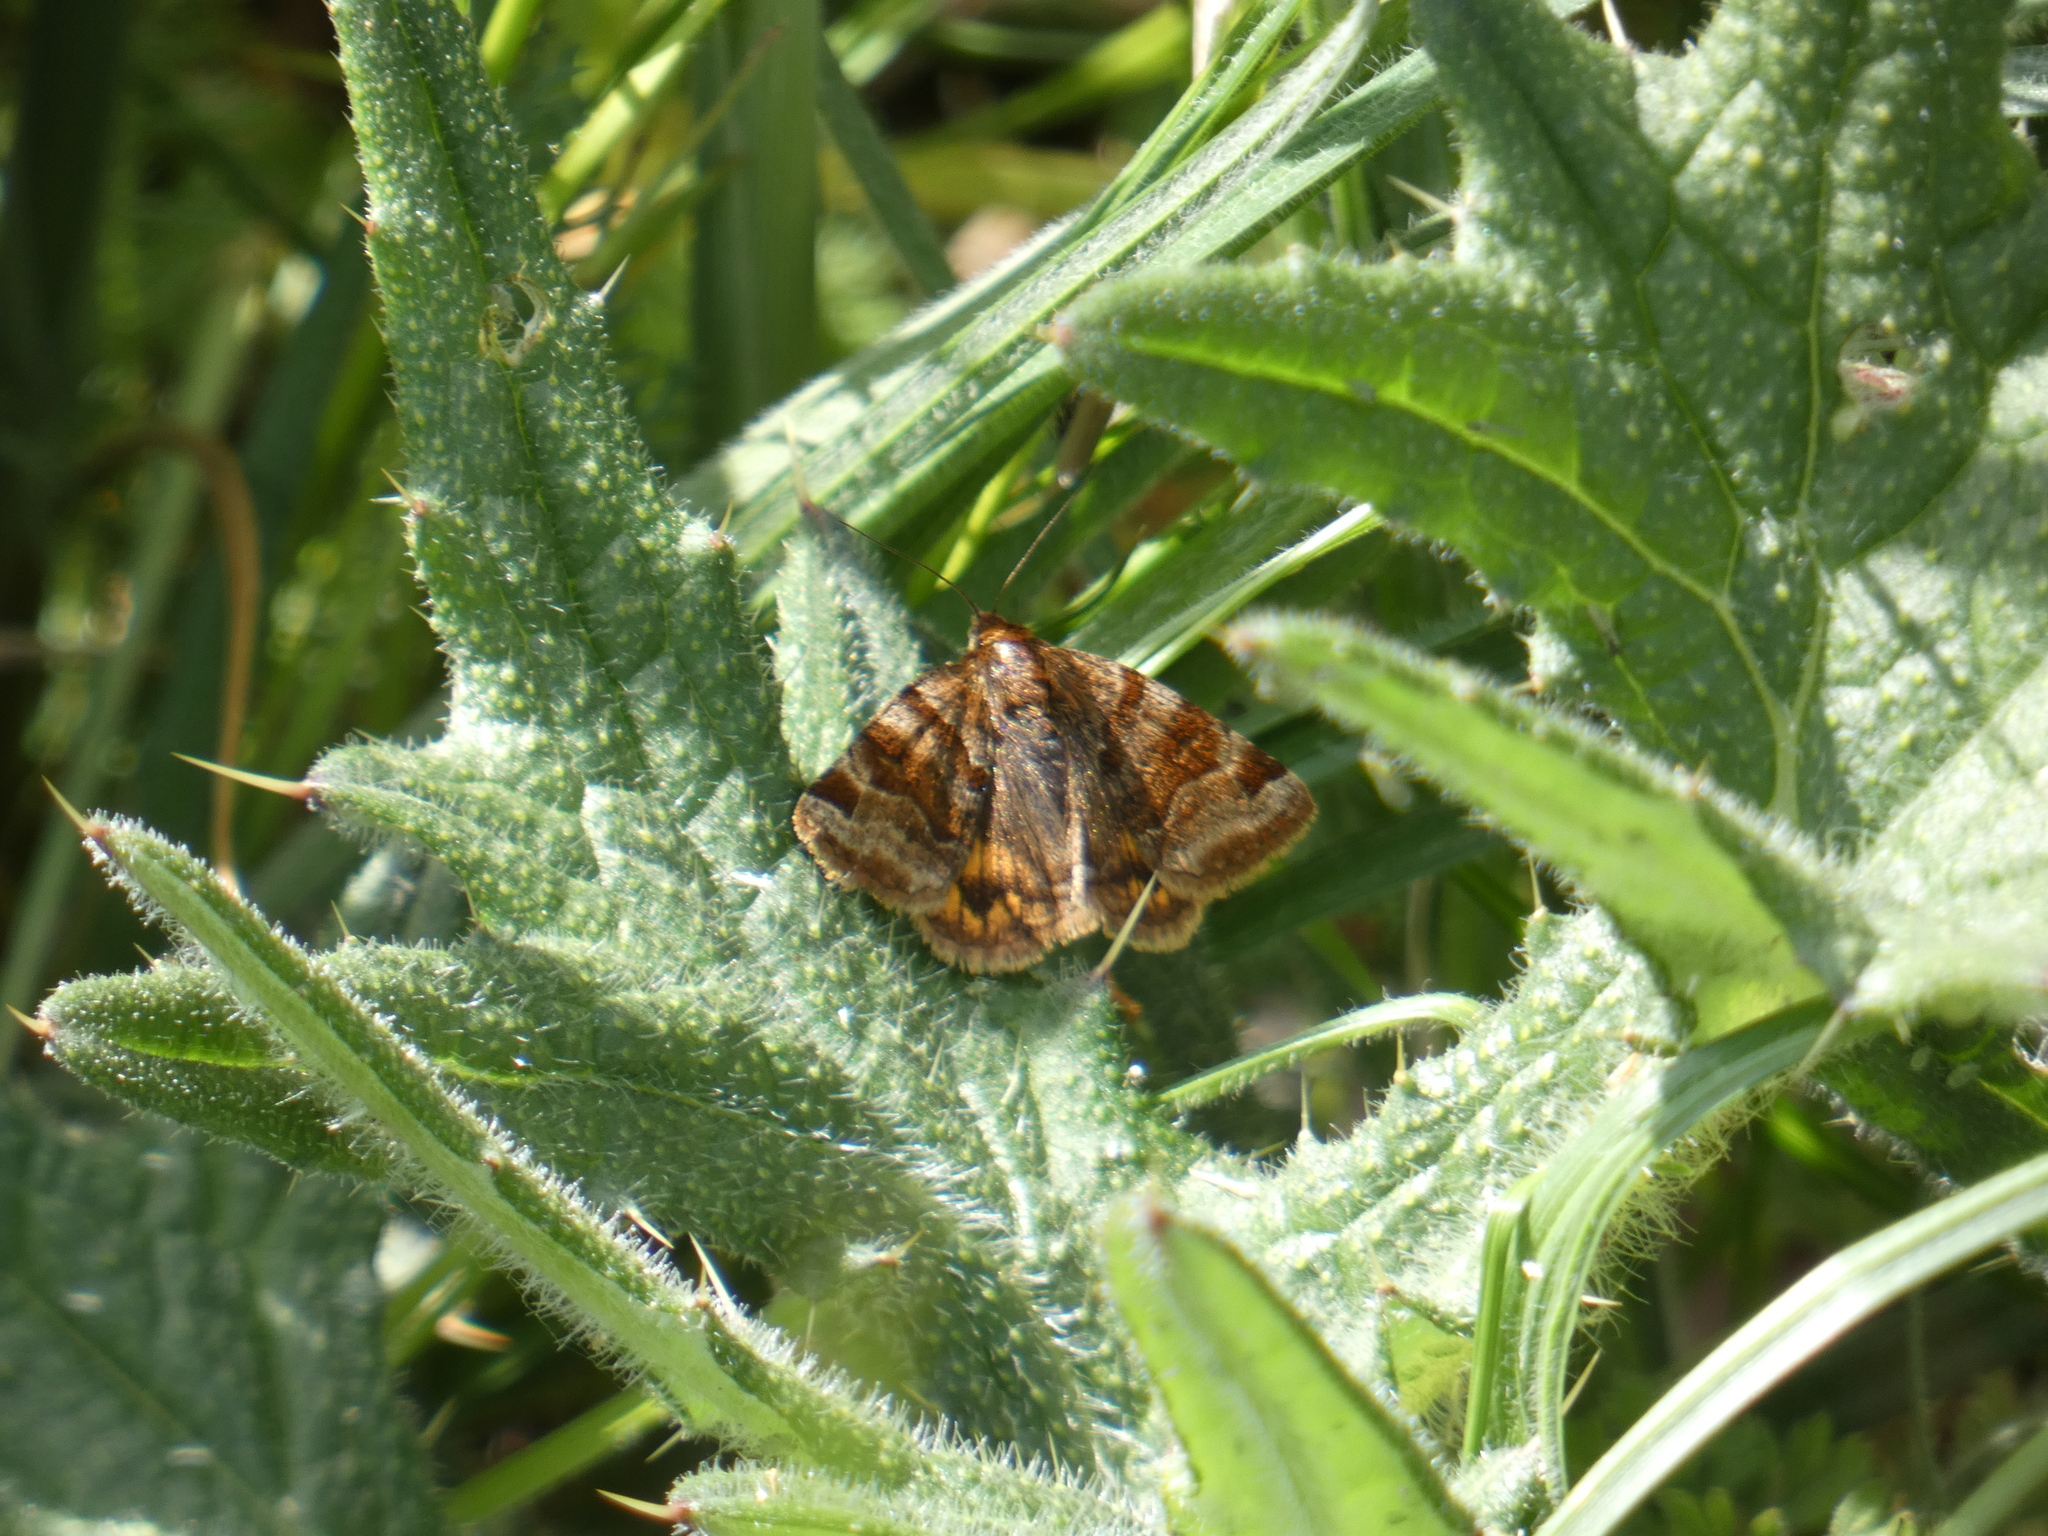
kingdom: Animalia
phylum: Arthropoda
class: Insecta
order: Lepidoptera
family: Erebidae
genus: Euclidia
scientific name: Euclidia glyphica
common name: Burnet companion
